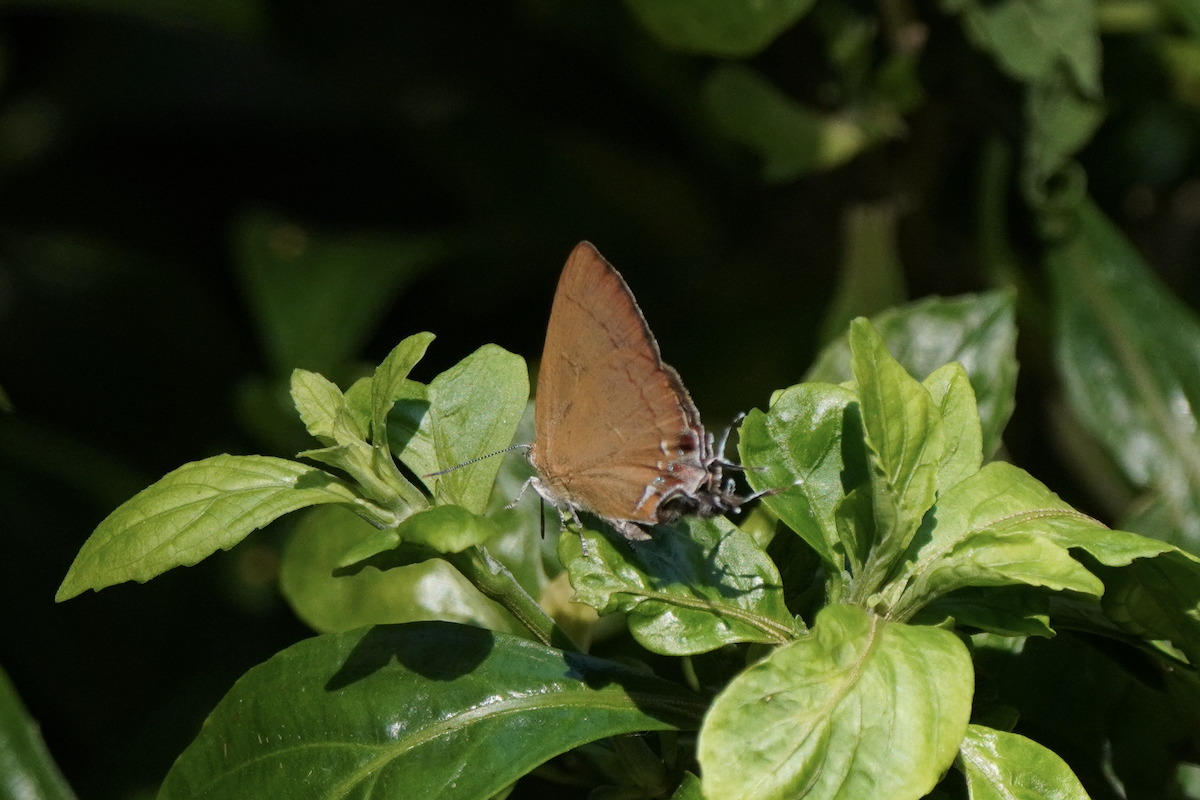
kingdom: Animalia
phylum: Arthropoda
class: Insecta
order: Lepidoptera
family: Lycaenidae
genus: Remelana
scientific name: Remelana jangala
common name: Chocolate royal
